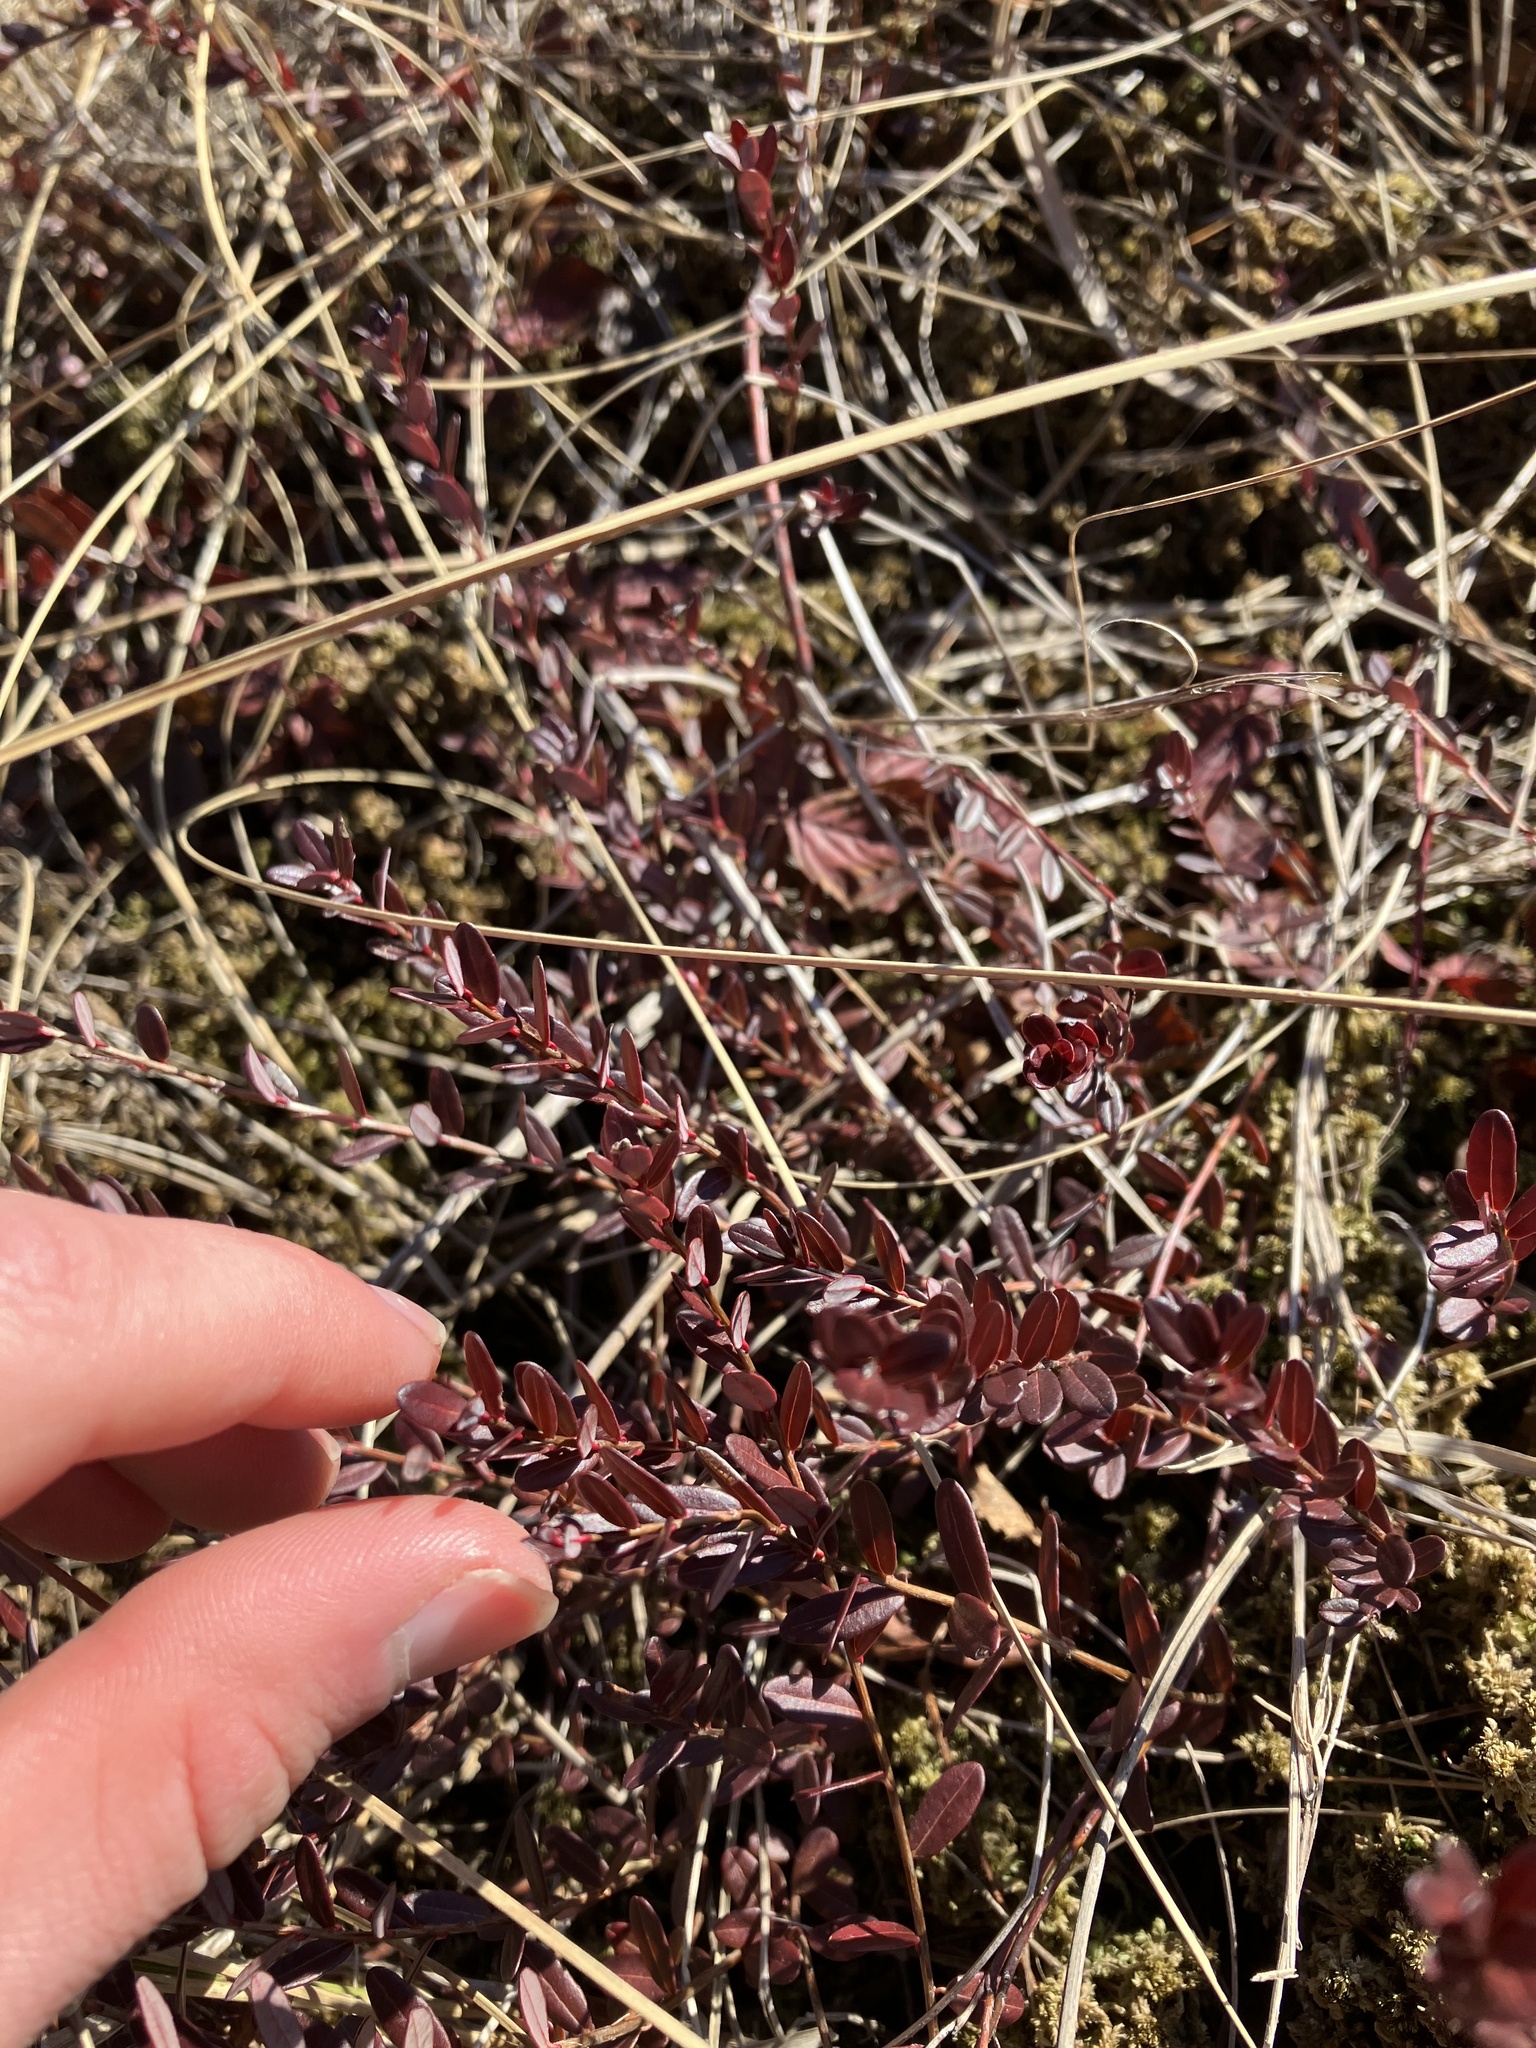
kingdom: Plantae
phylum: Tracheophyta
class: Magnoliopsida
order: Ericales
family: Ericaceae
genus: Vaccinium
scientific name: Vaccinium macrocarpon
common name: American cranberry
